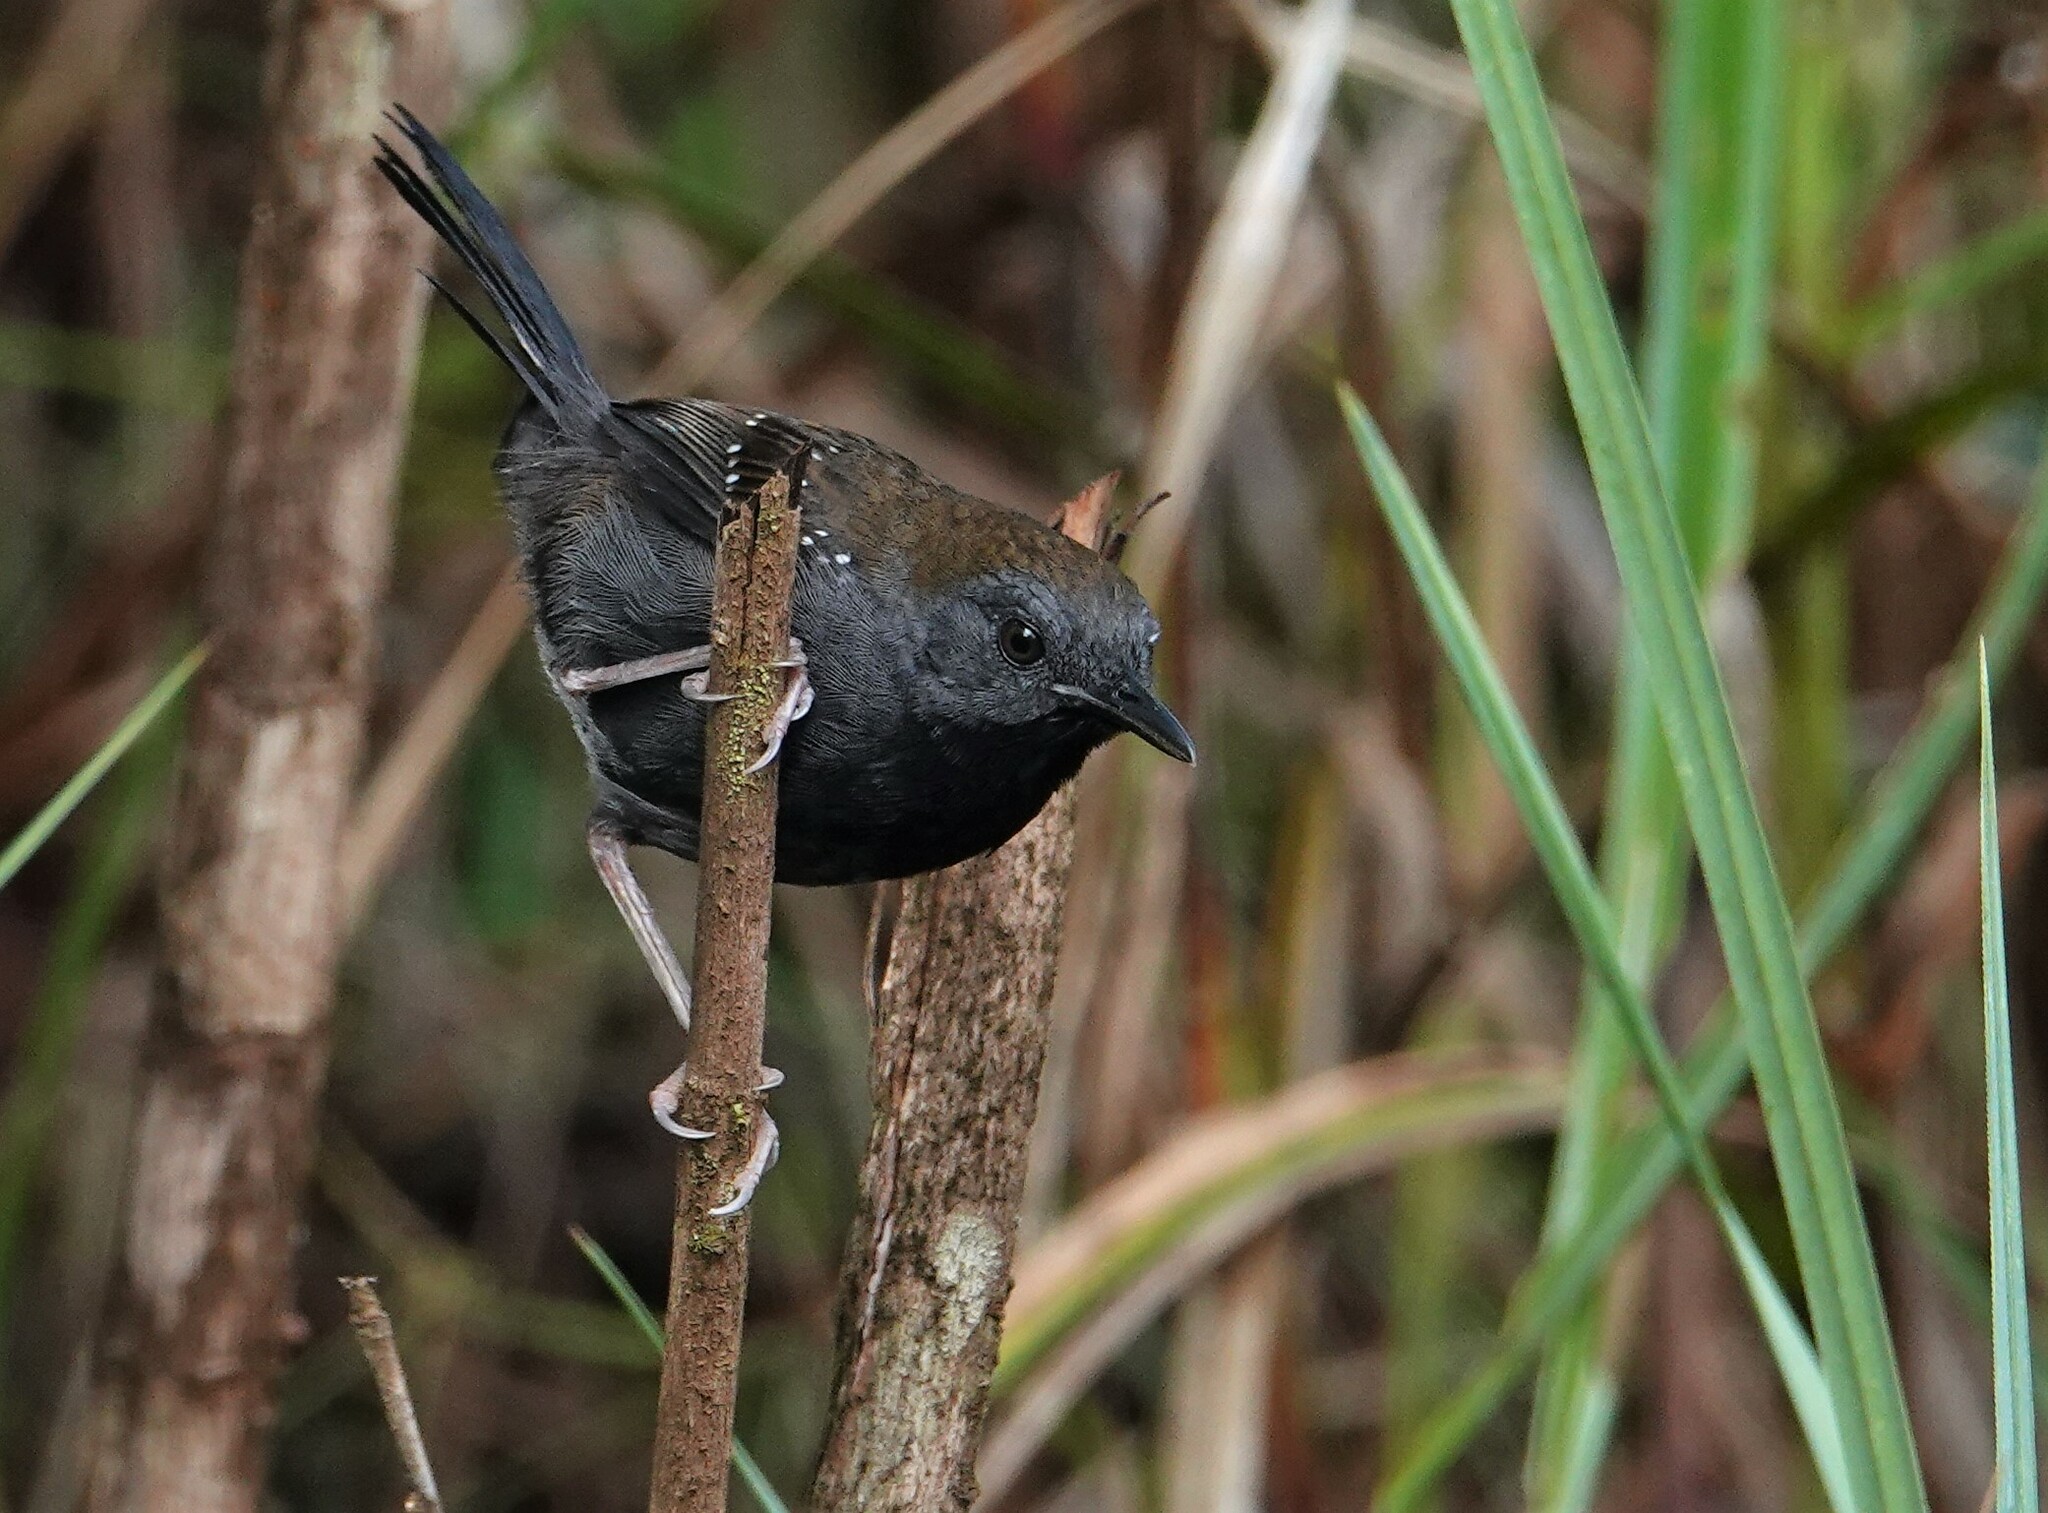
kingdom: Animalia
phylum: Chordata
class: Aves
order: Passeriformes
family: Thamnophilidae
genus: Myrmeciza
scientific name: Myrmeciza atrothorax
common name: Black-throated antbird
